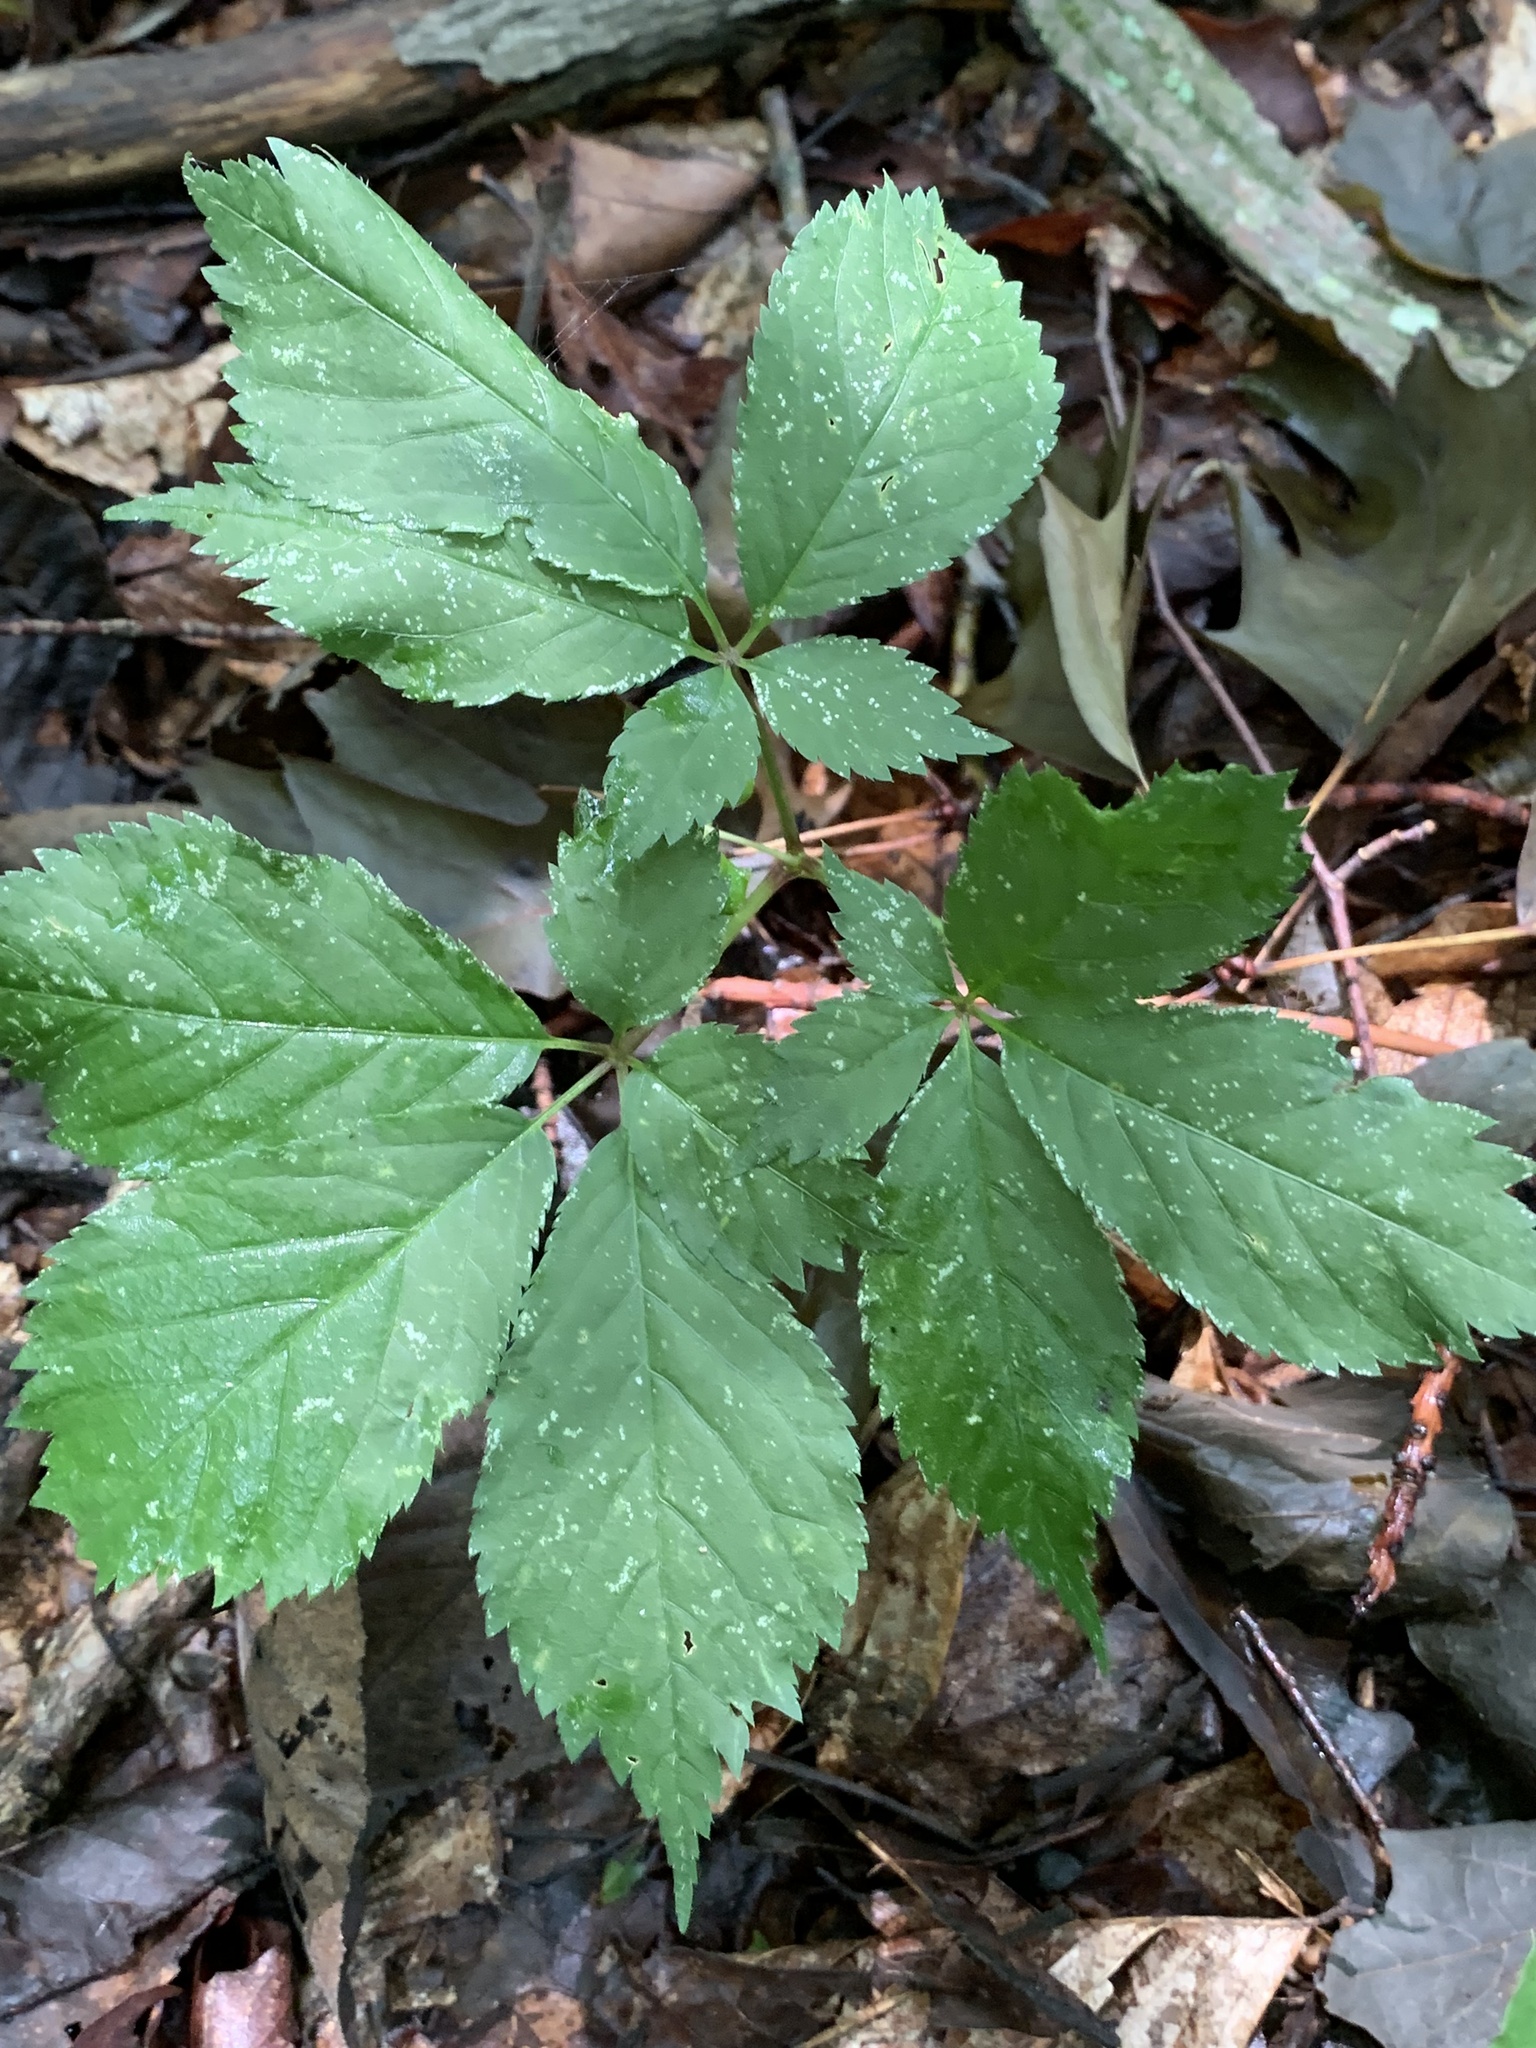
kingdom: Plantae
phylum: Tracheophyta
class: Magnoliopsida
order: Apiales
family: Araliaceae
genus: Panax
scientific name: Panax quinquefolius
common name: American ginseng
